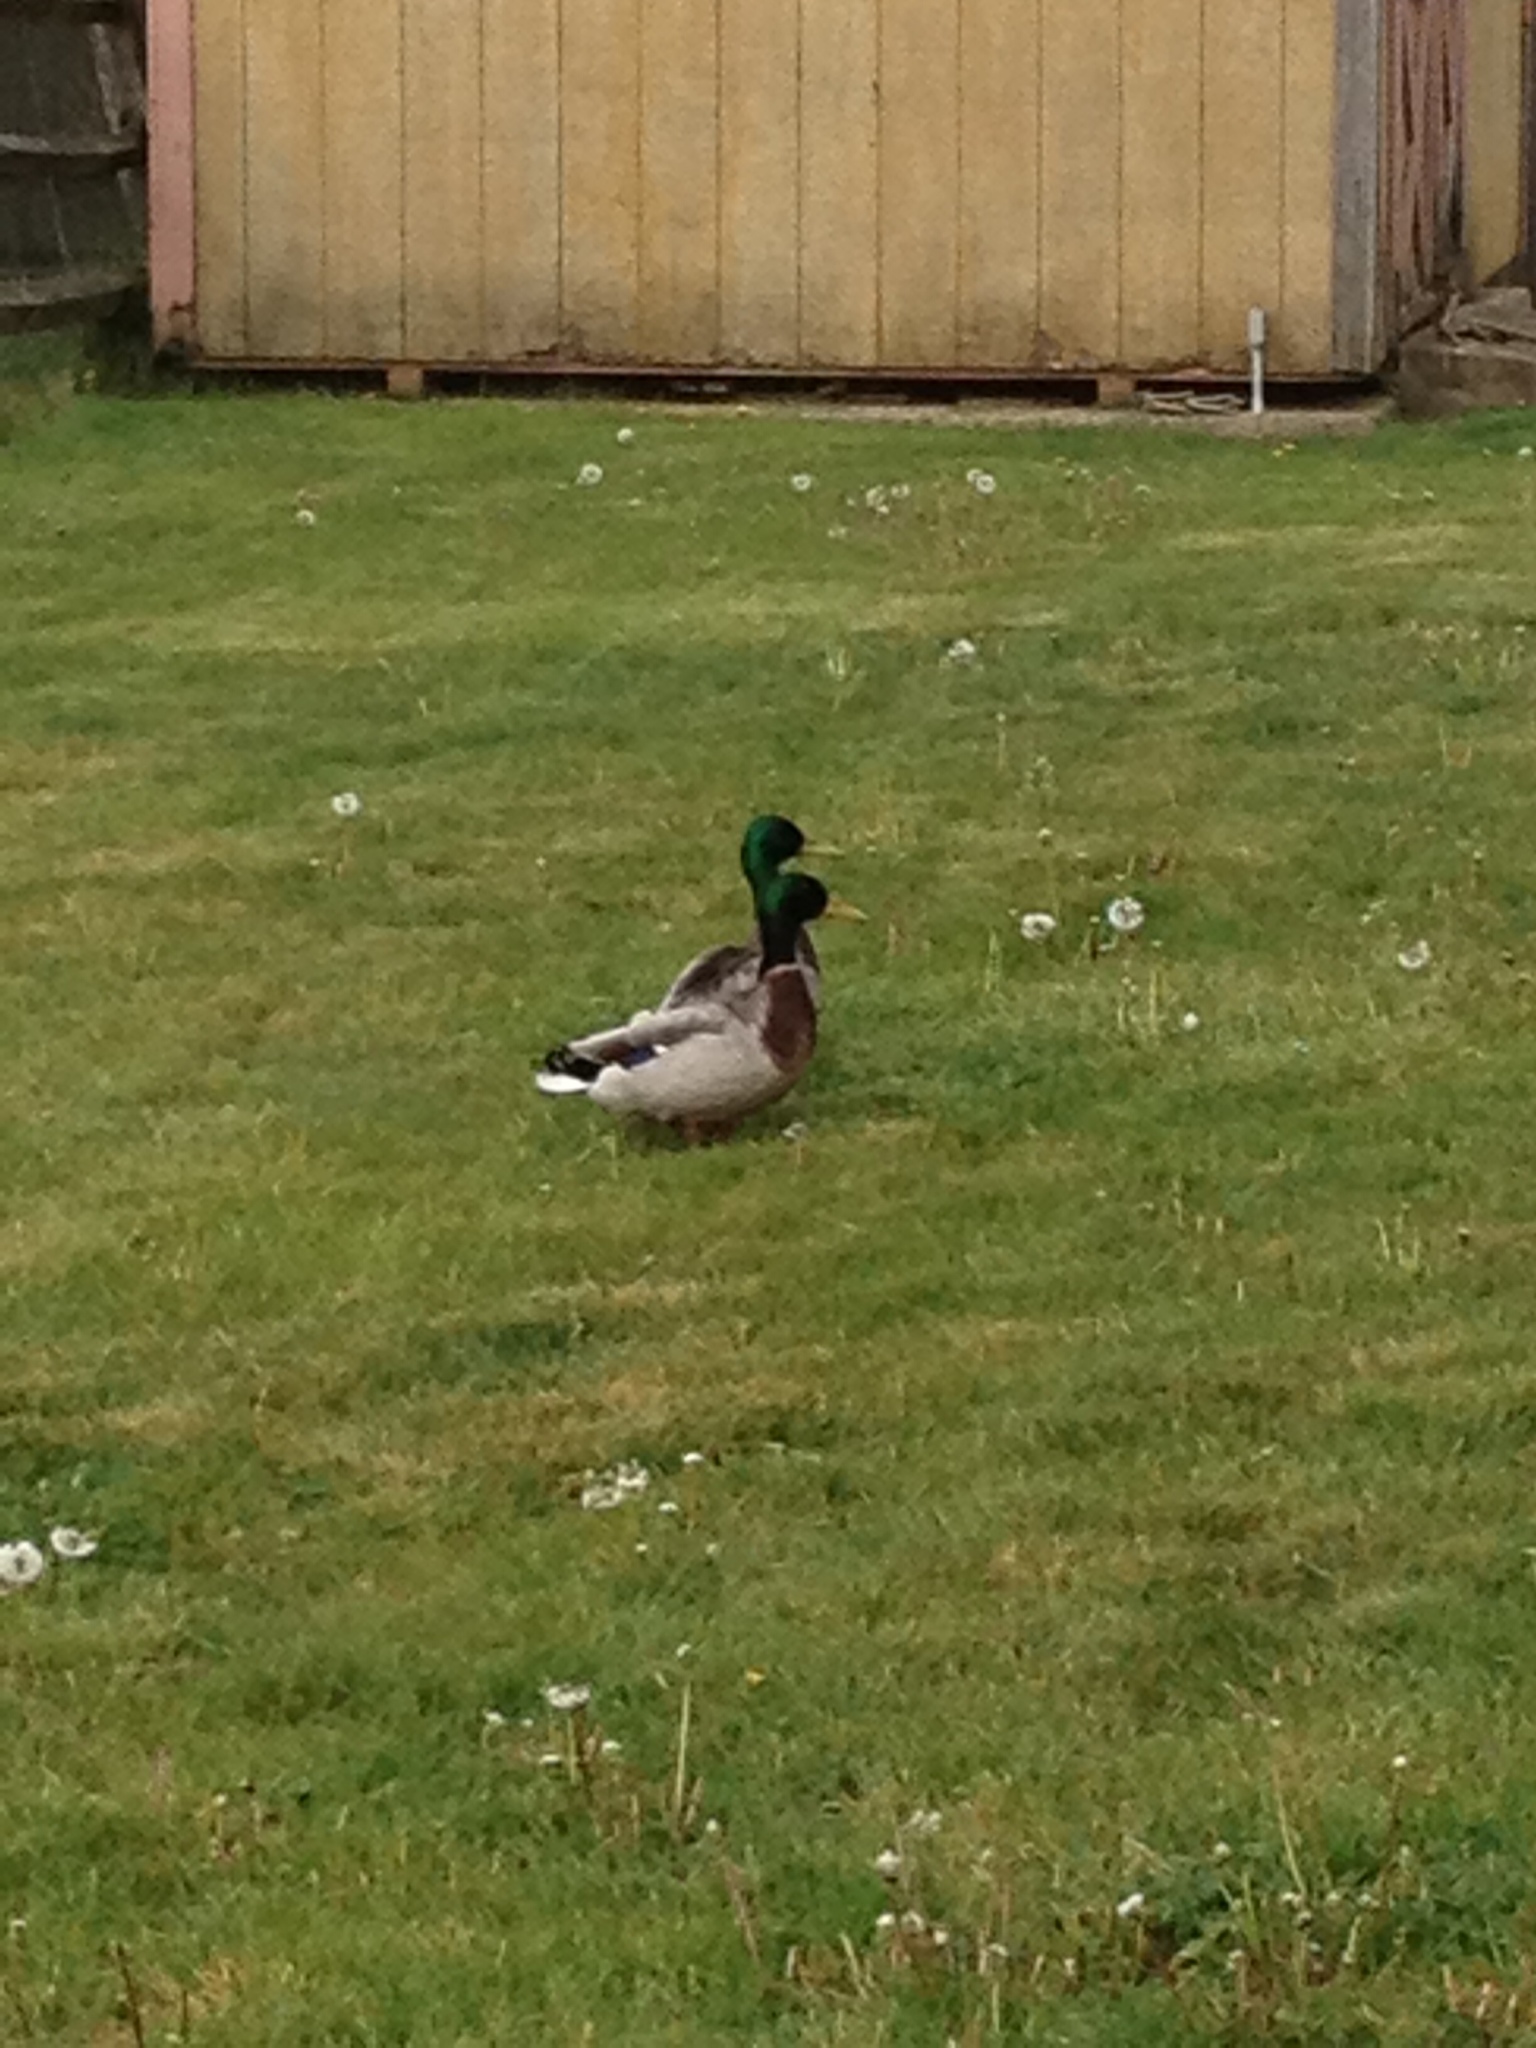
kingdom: Animalia
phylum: Chordata
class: Aves
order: Anseriformes
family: Anatidae
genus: Anas
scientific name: Anas platyrhynchos
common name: Mallard
